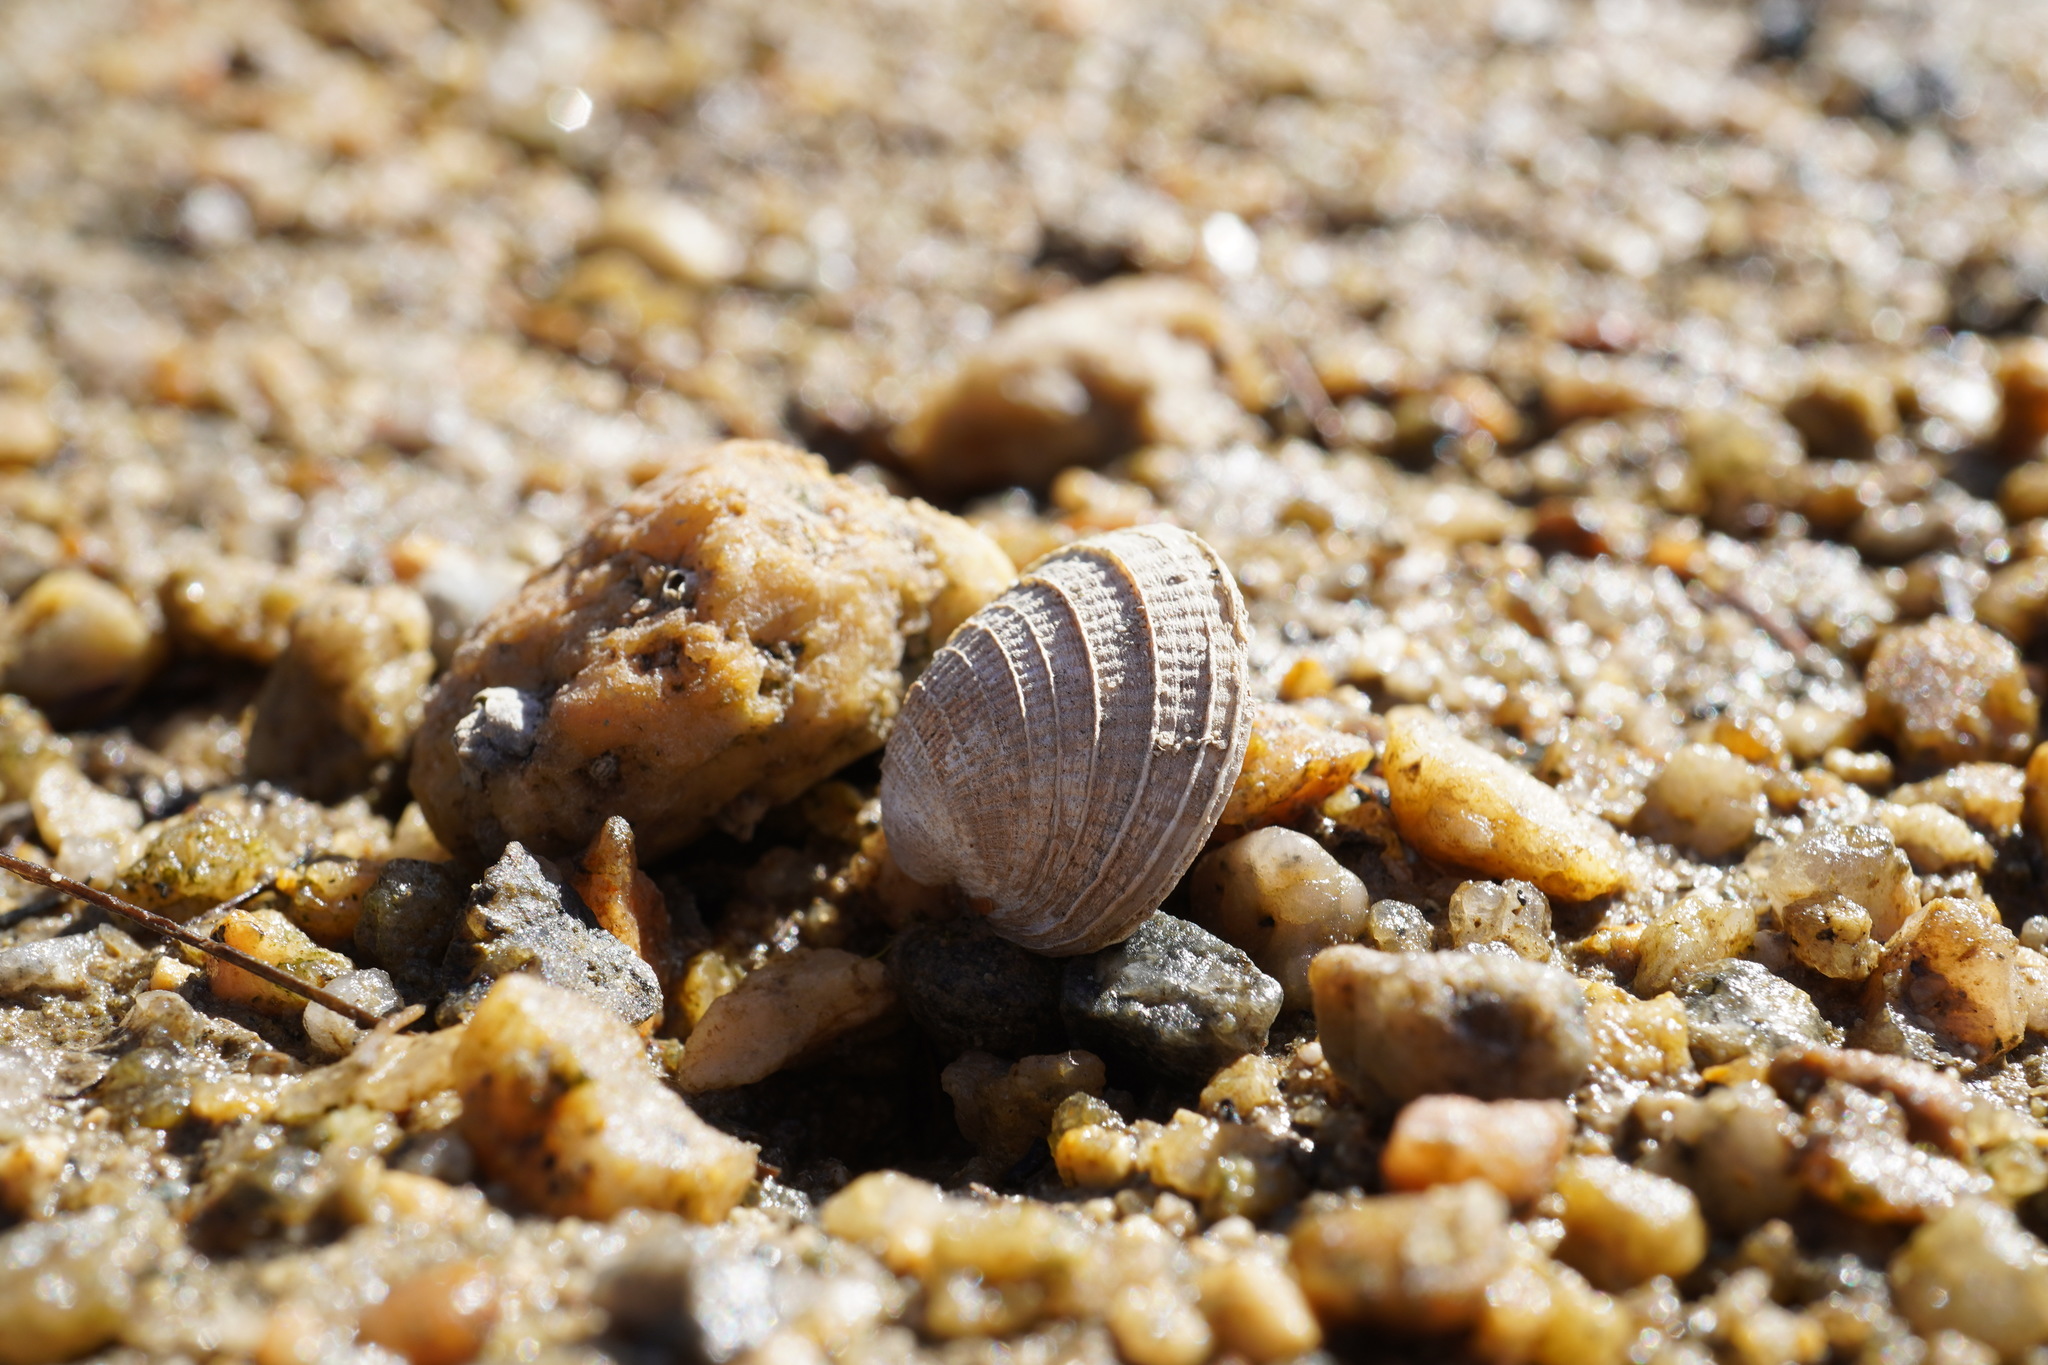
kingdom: Animalia
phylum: Mollusca
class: Bivalvia
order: Venerida
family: Veneridae
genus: Austrovenus
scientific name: Austrovenus stutchburyi
